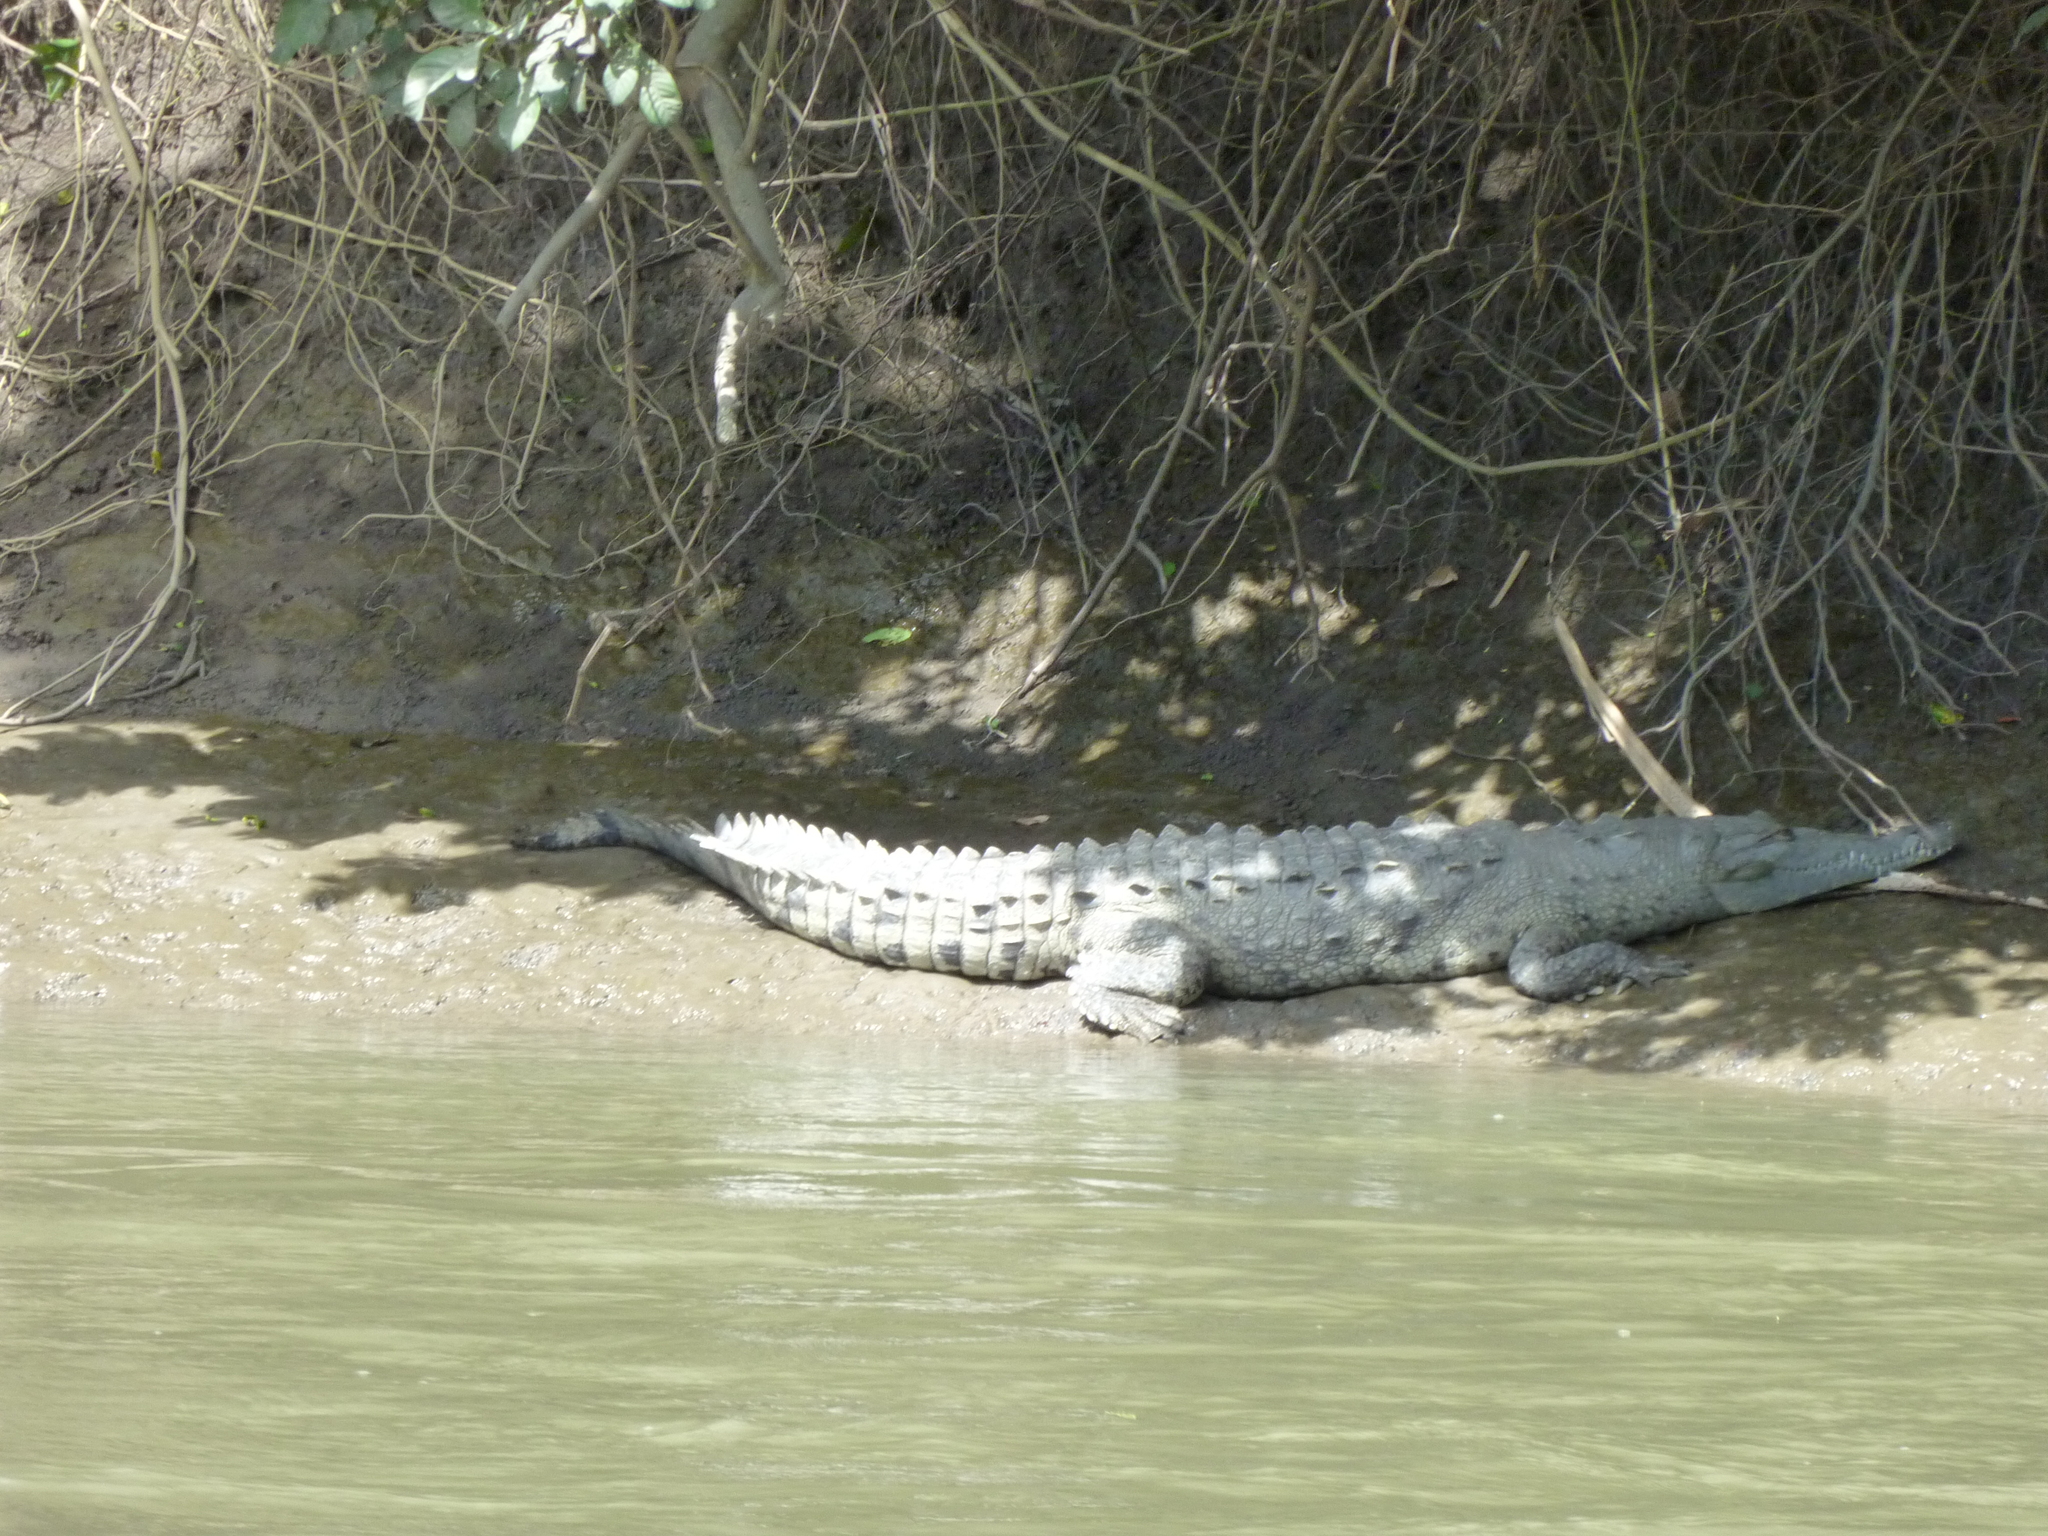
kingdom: Animalia
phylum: Chordata
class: Crocodylia
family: Crocodylidae
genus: Crocodylus
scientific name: Crocodylus acutus
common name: American crocodile
